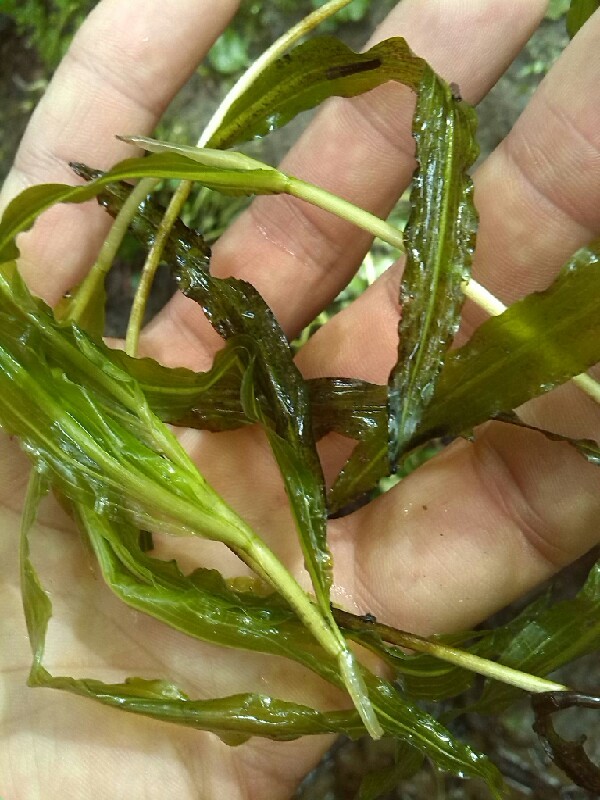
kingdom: Plantae
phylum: Tracheophyta
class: Liliopsida
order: Alismatales
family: Potamogetonaceae
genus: Potamogeton
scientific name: Potamogeton crispus
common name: Curled pondweed
